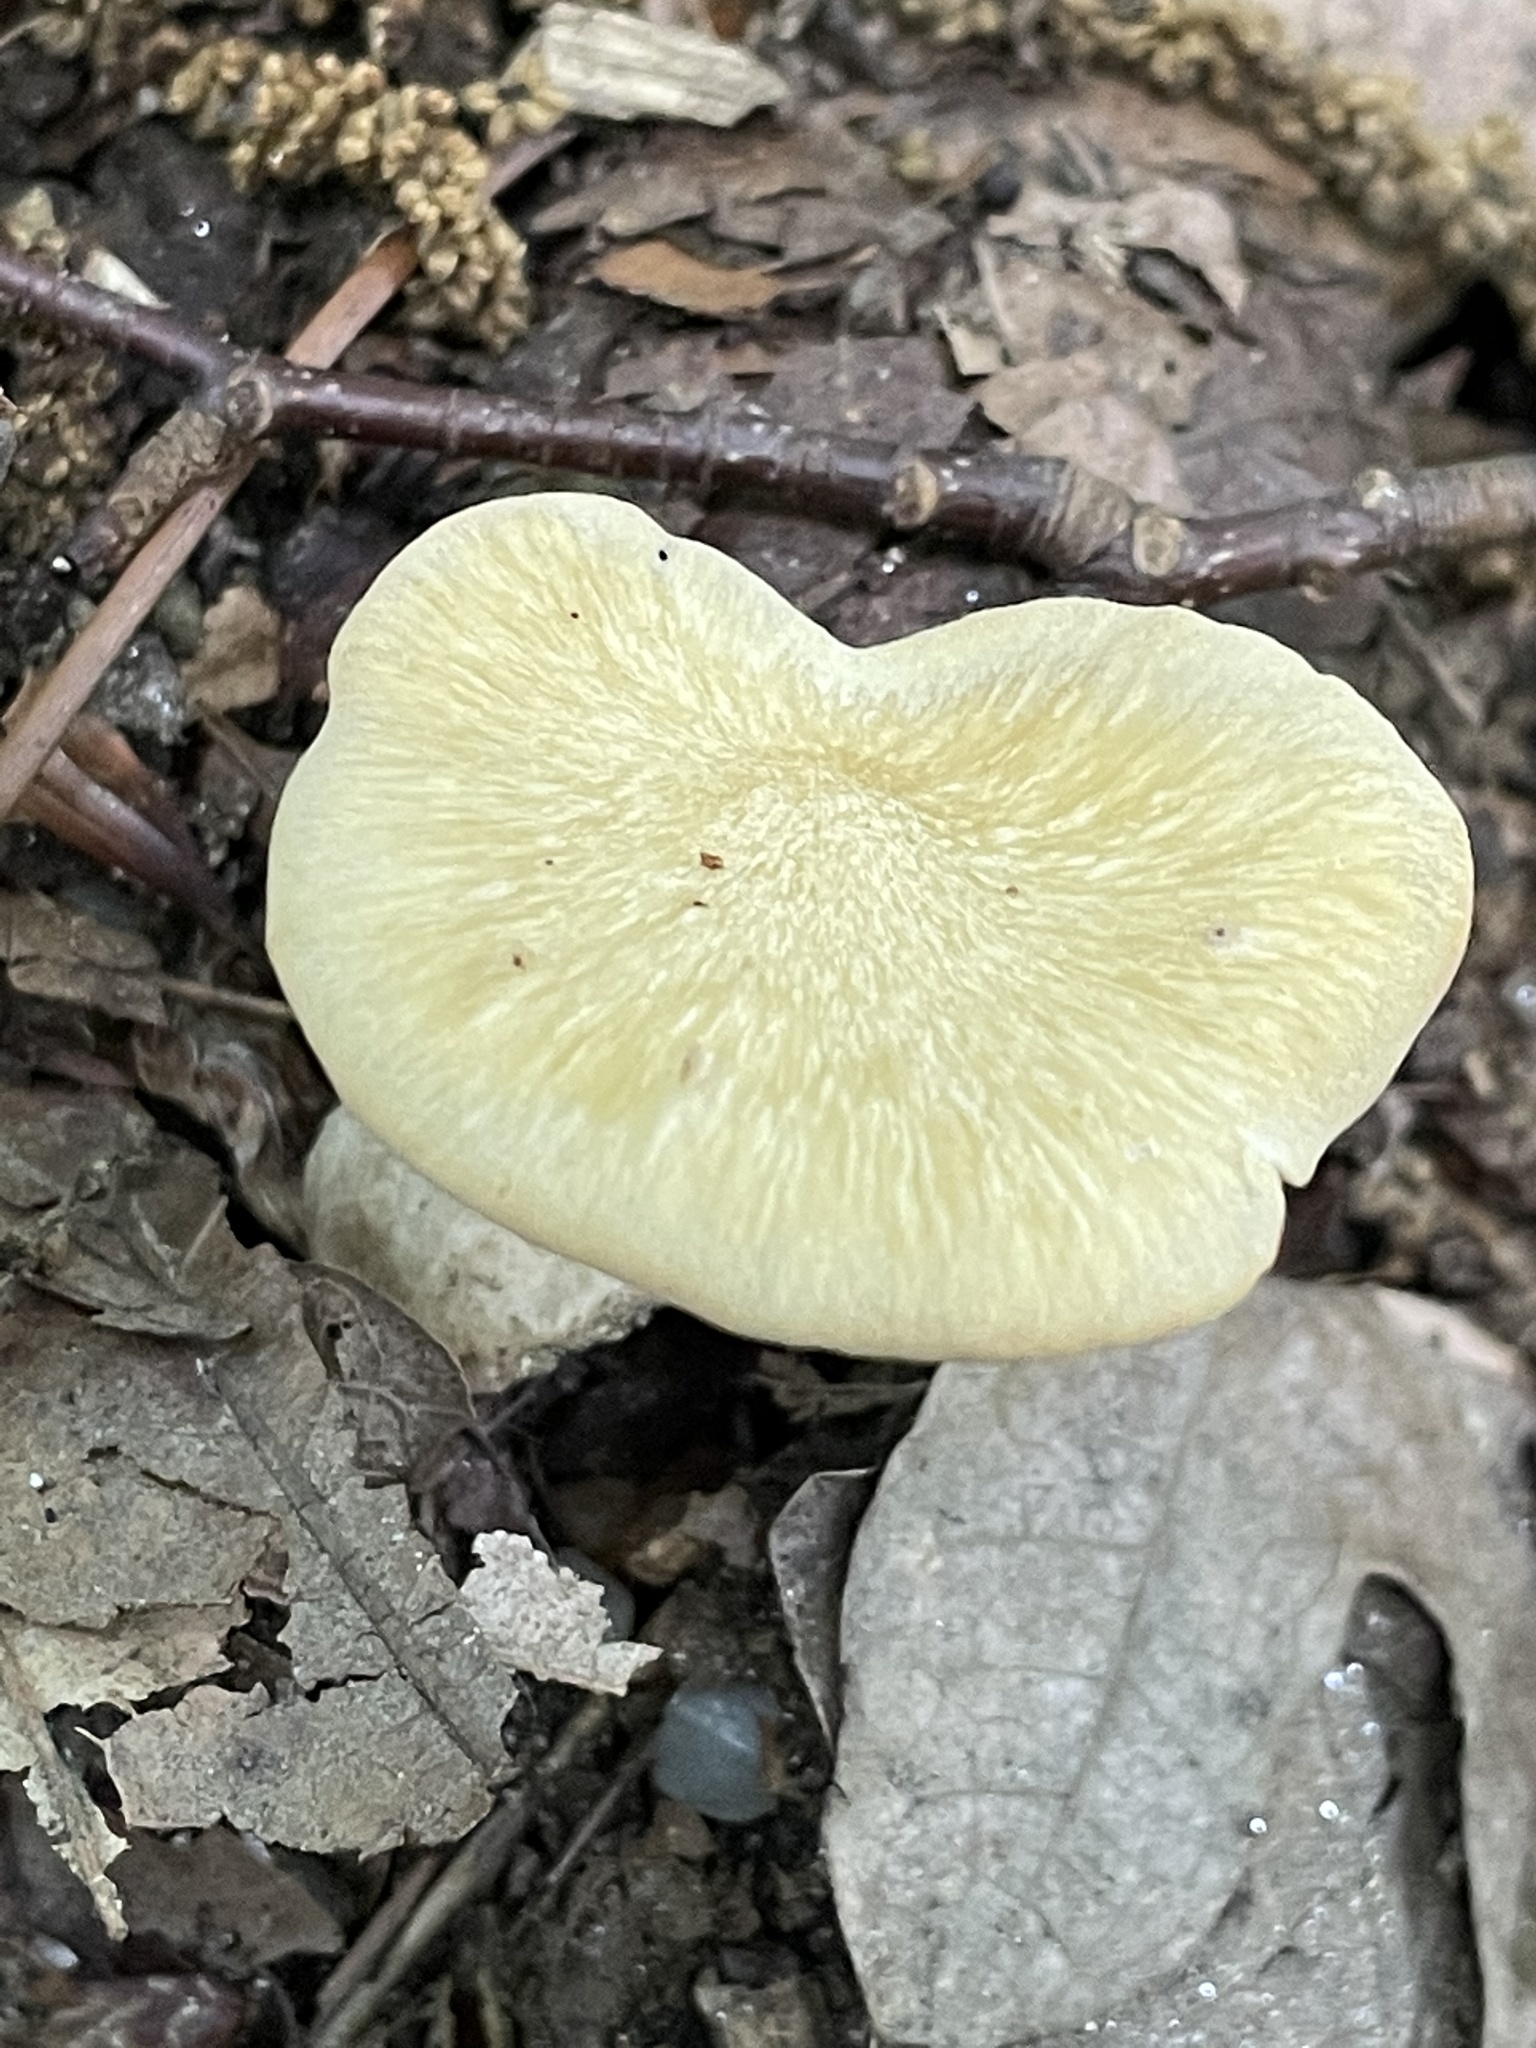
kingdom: Fungi
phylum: Basidiomycota
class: Agaricomycetes
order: Polyporales
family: Polyporaceae
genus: Cerioporus
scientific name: Cerioporus varius
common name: Elegant polypore
